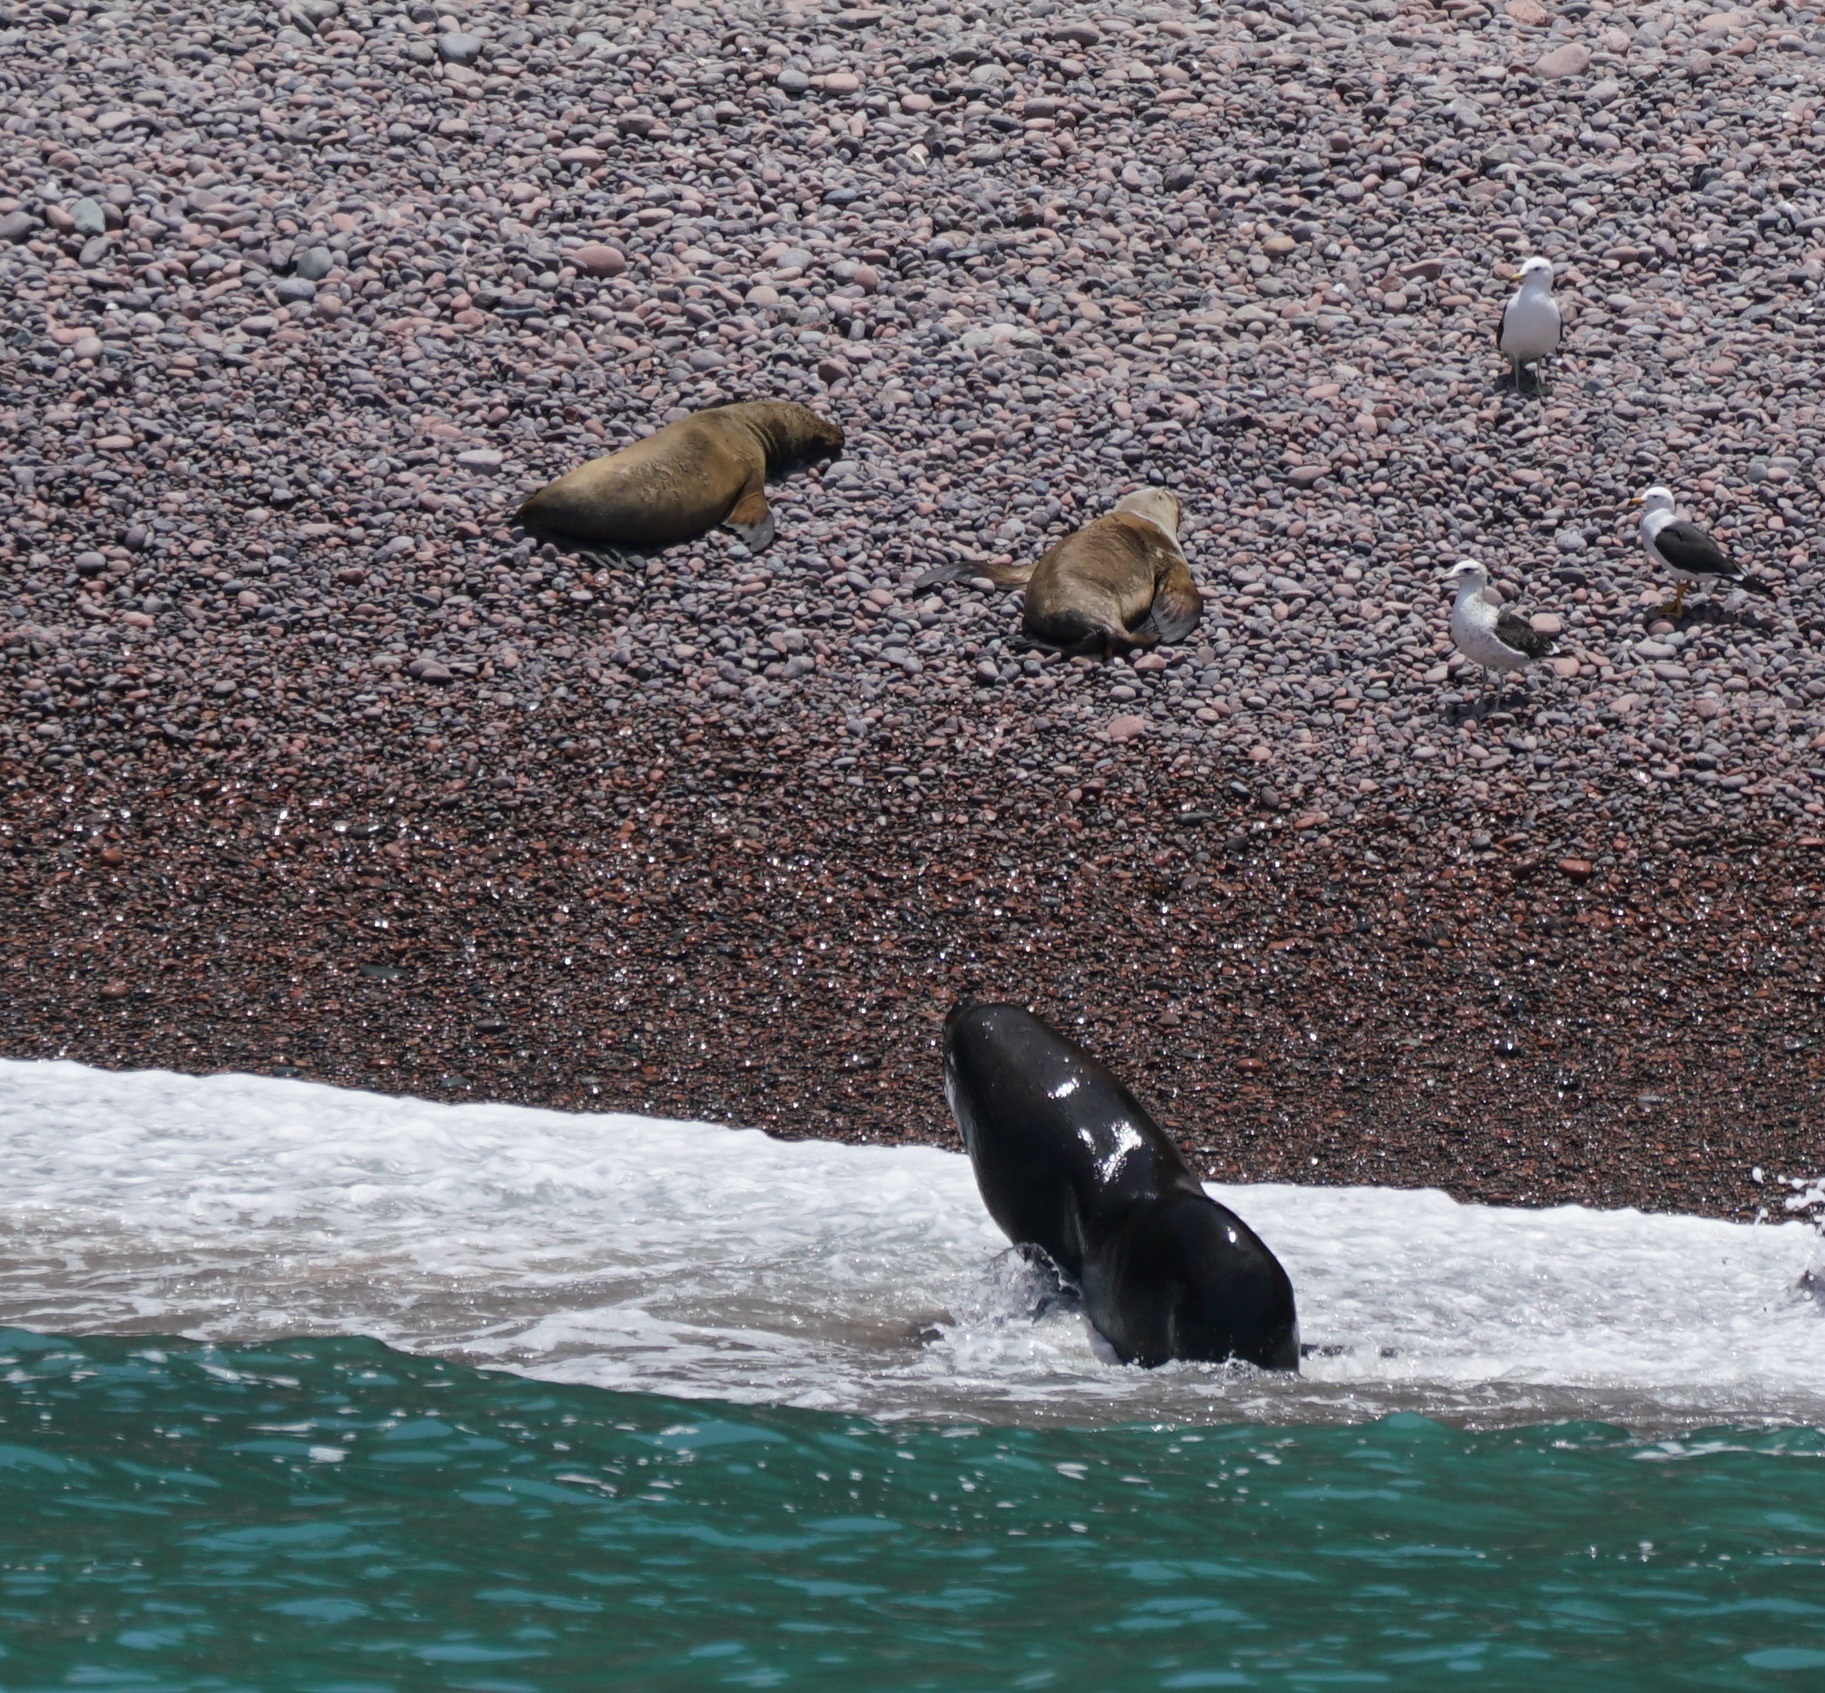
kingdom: Animalia
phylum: Chordata
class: Mammalia
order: Carnivora
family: Otariidae
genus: Otaria
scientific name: Otaria byronia
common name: South american sea lion
